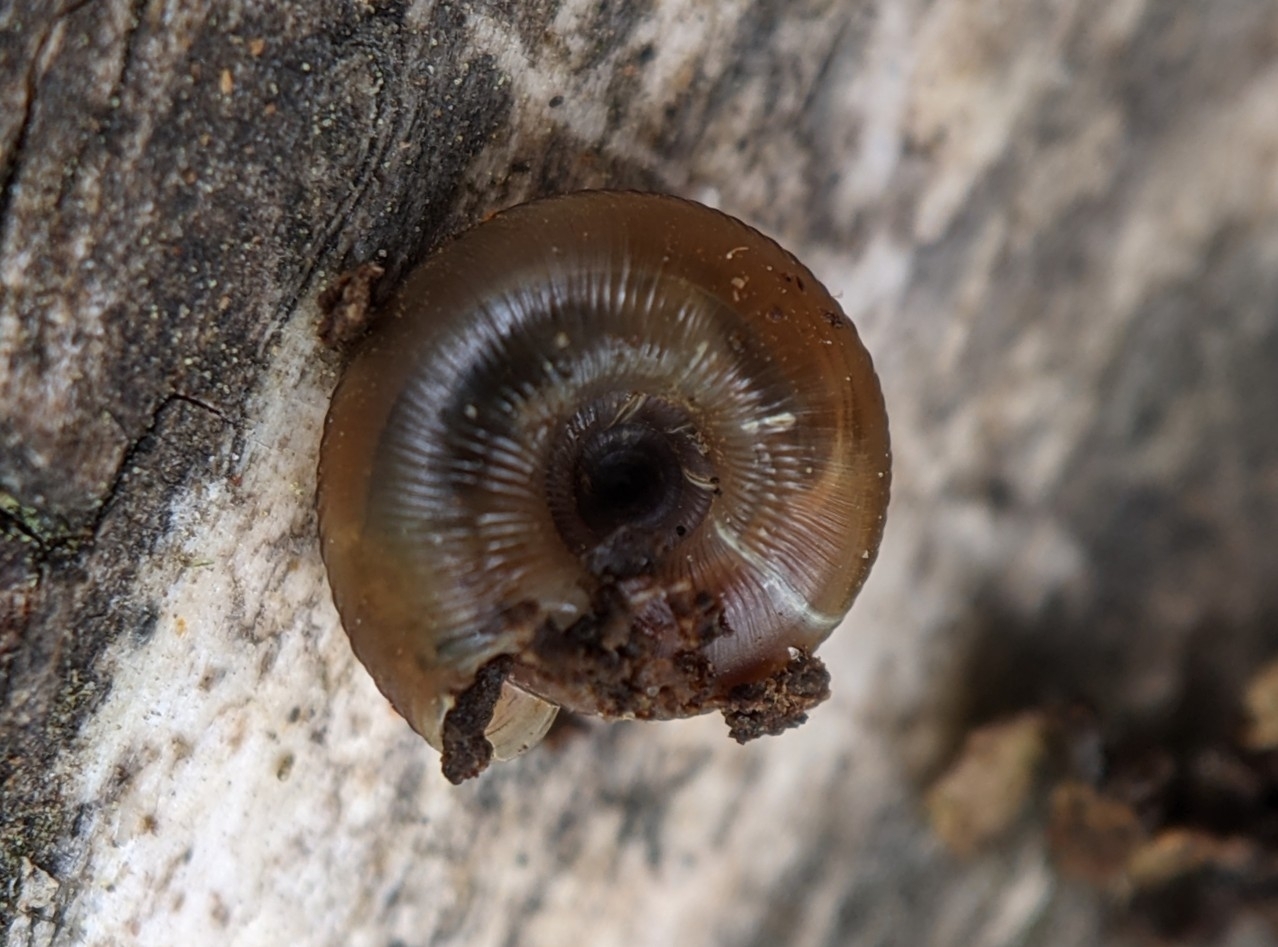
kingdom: Animalia
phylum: Mollusca
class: Gastropoda
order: Stylommatophora
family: Discidae
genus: Discus
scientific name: Discus rotundatus
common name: Rounded snail
